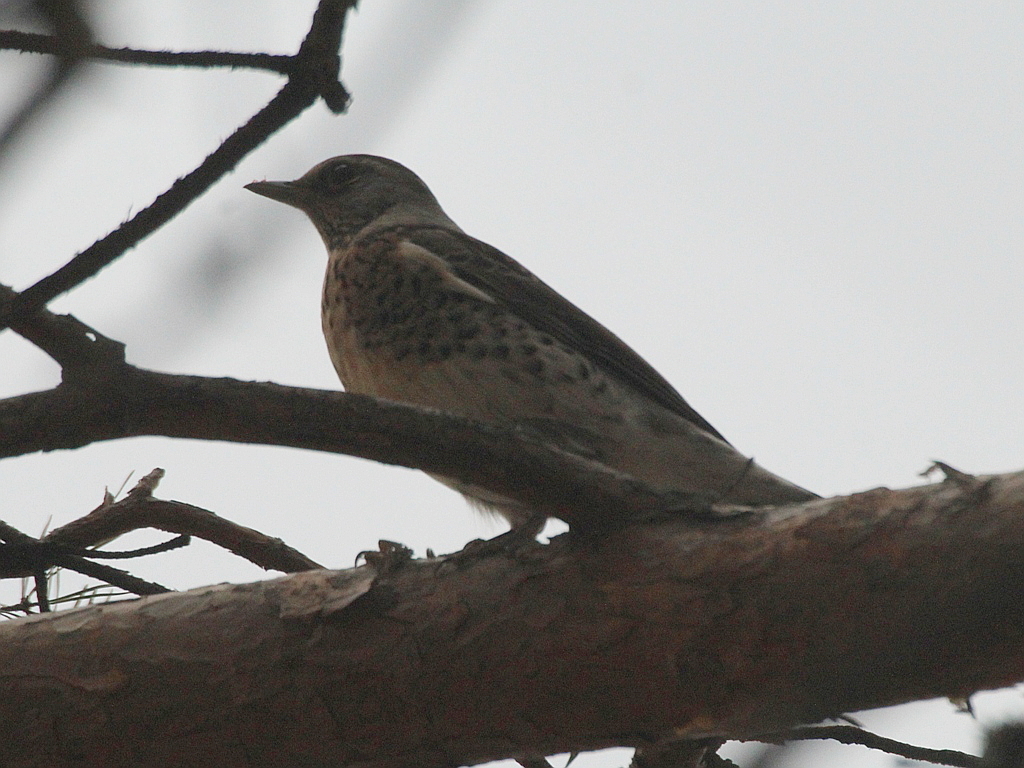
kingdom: Animalia
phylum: Chordata
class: Aves
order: Passeriformes
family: Turdidae
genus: Turdus
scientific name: Turdus pilaris
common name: Fieldfare
